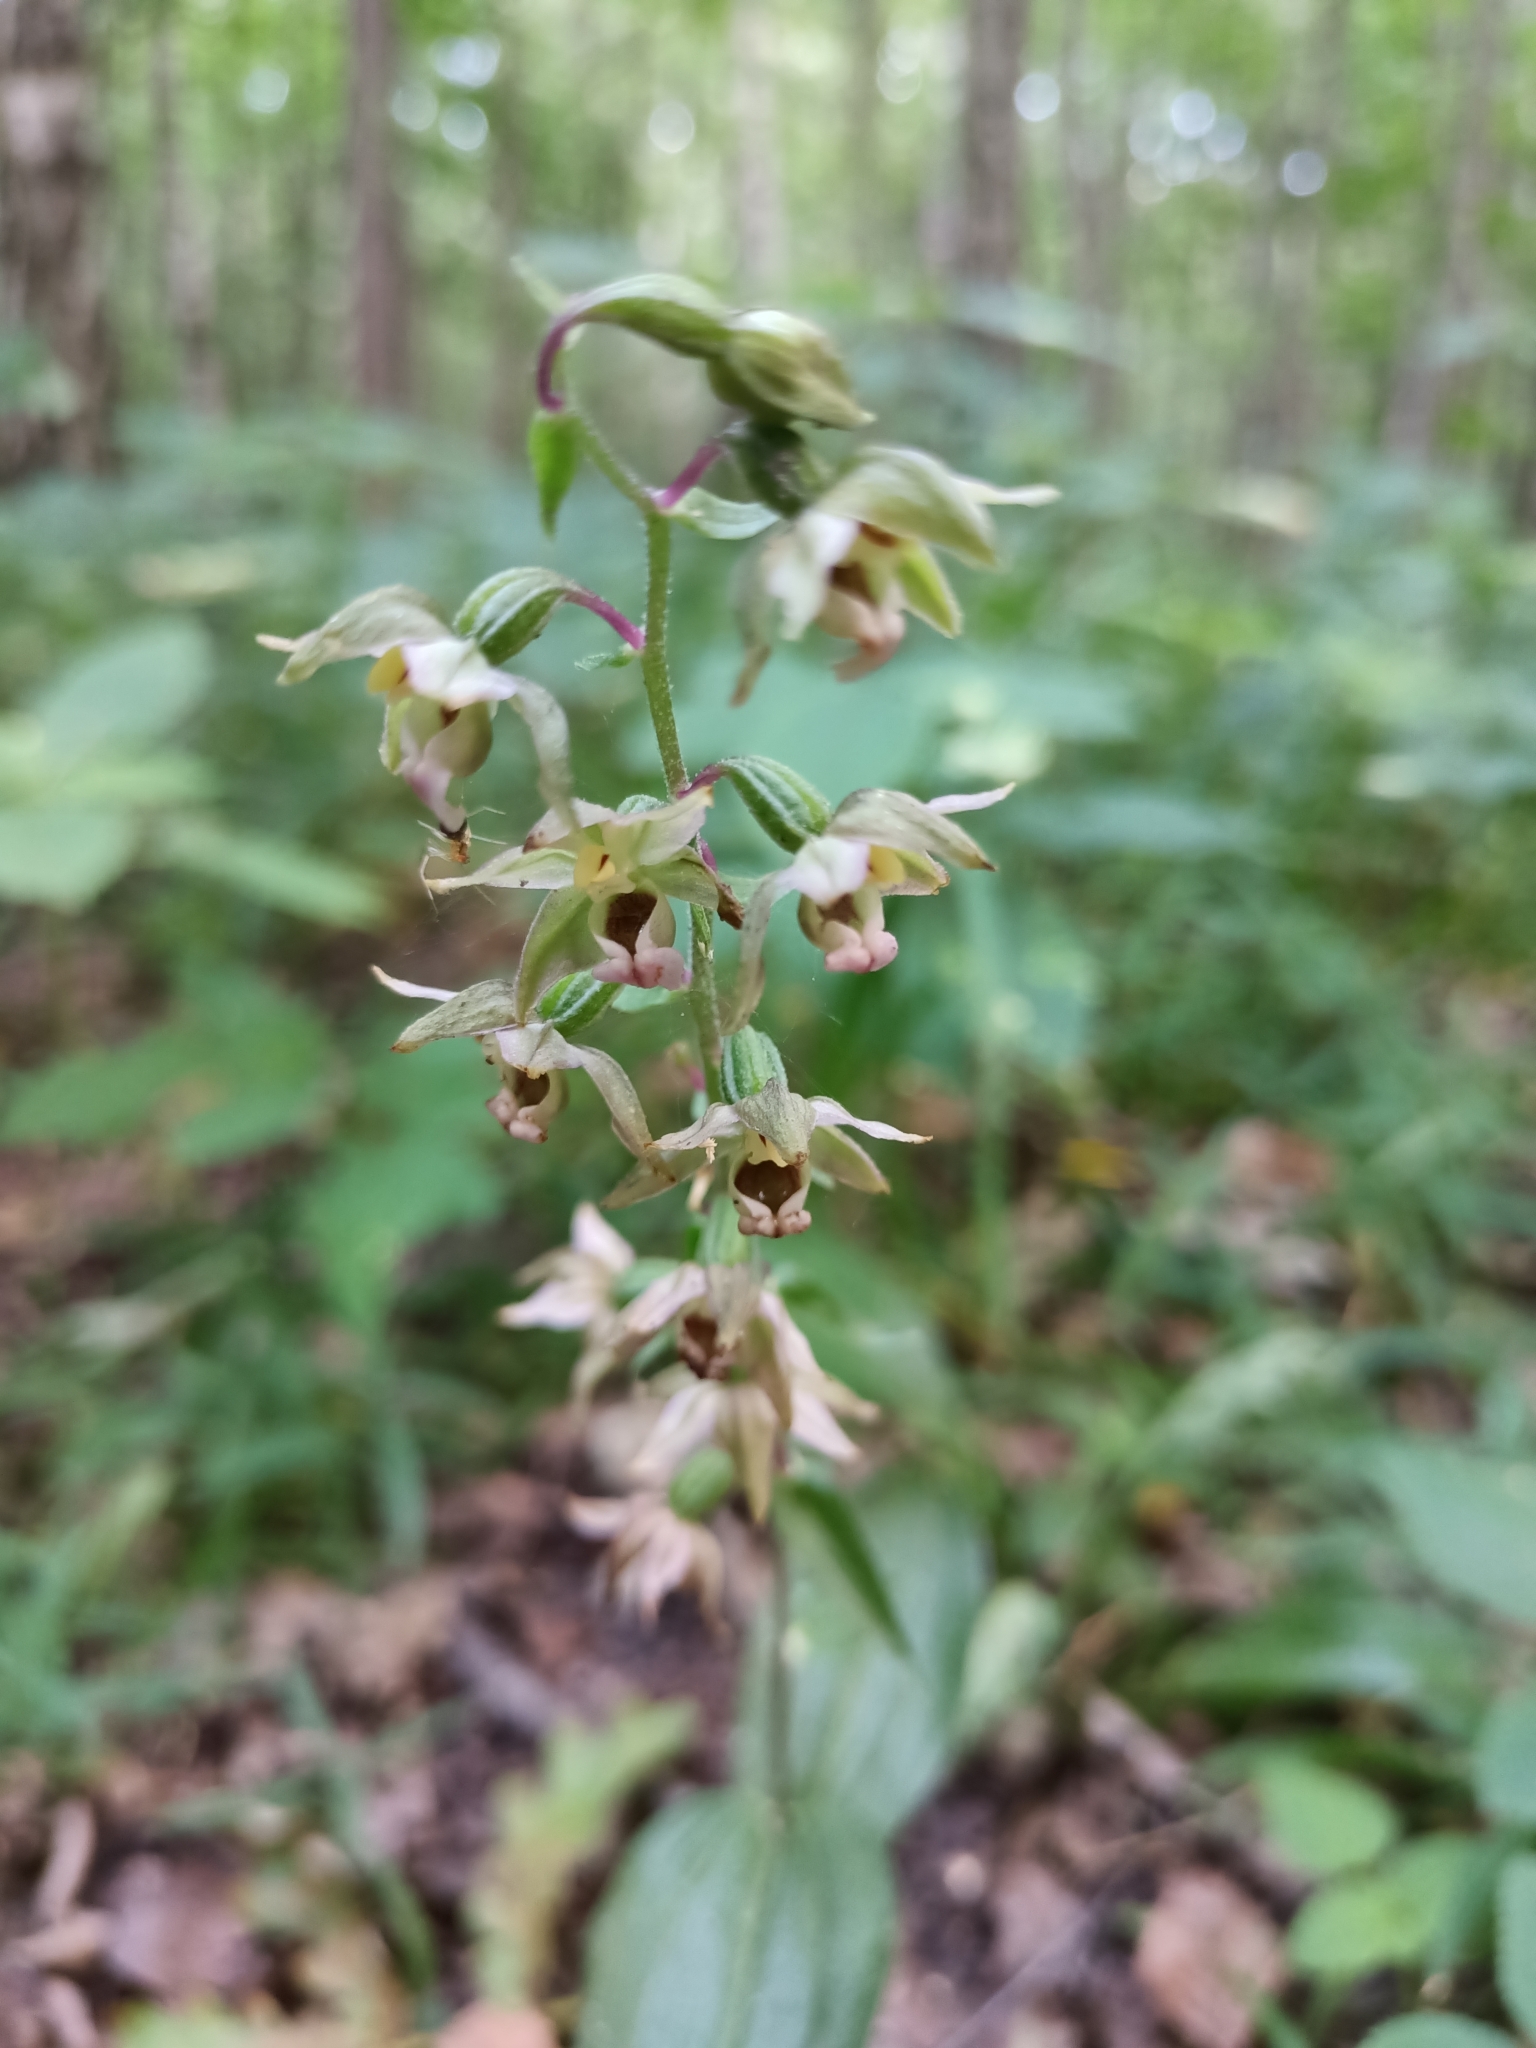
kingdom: Plantae
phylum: Tracheophyta
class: Liliopsida
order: Asparagales
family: Orchidaceae
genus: Epipactis
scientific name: Epipactis helleborine
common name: Broad-leaved helleborine
